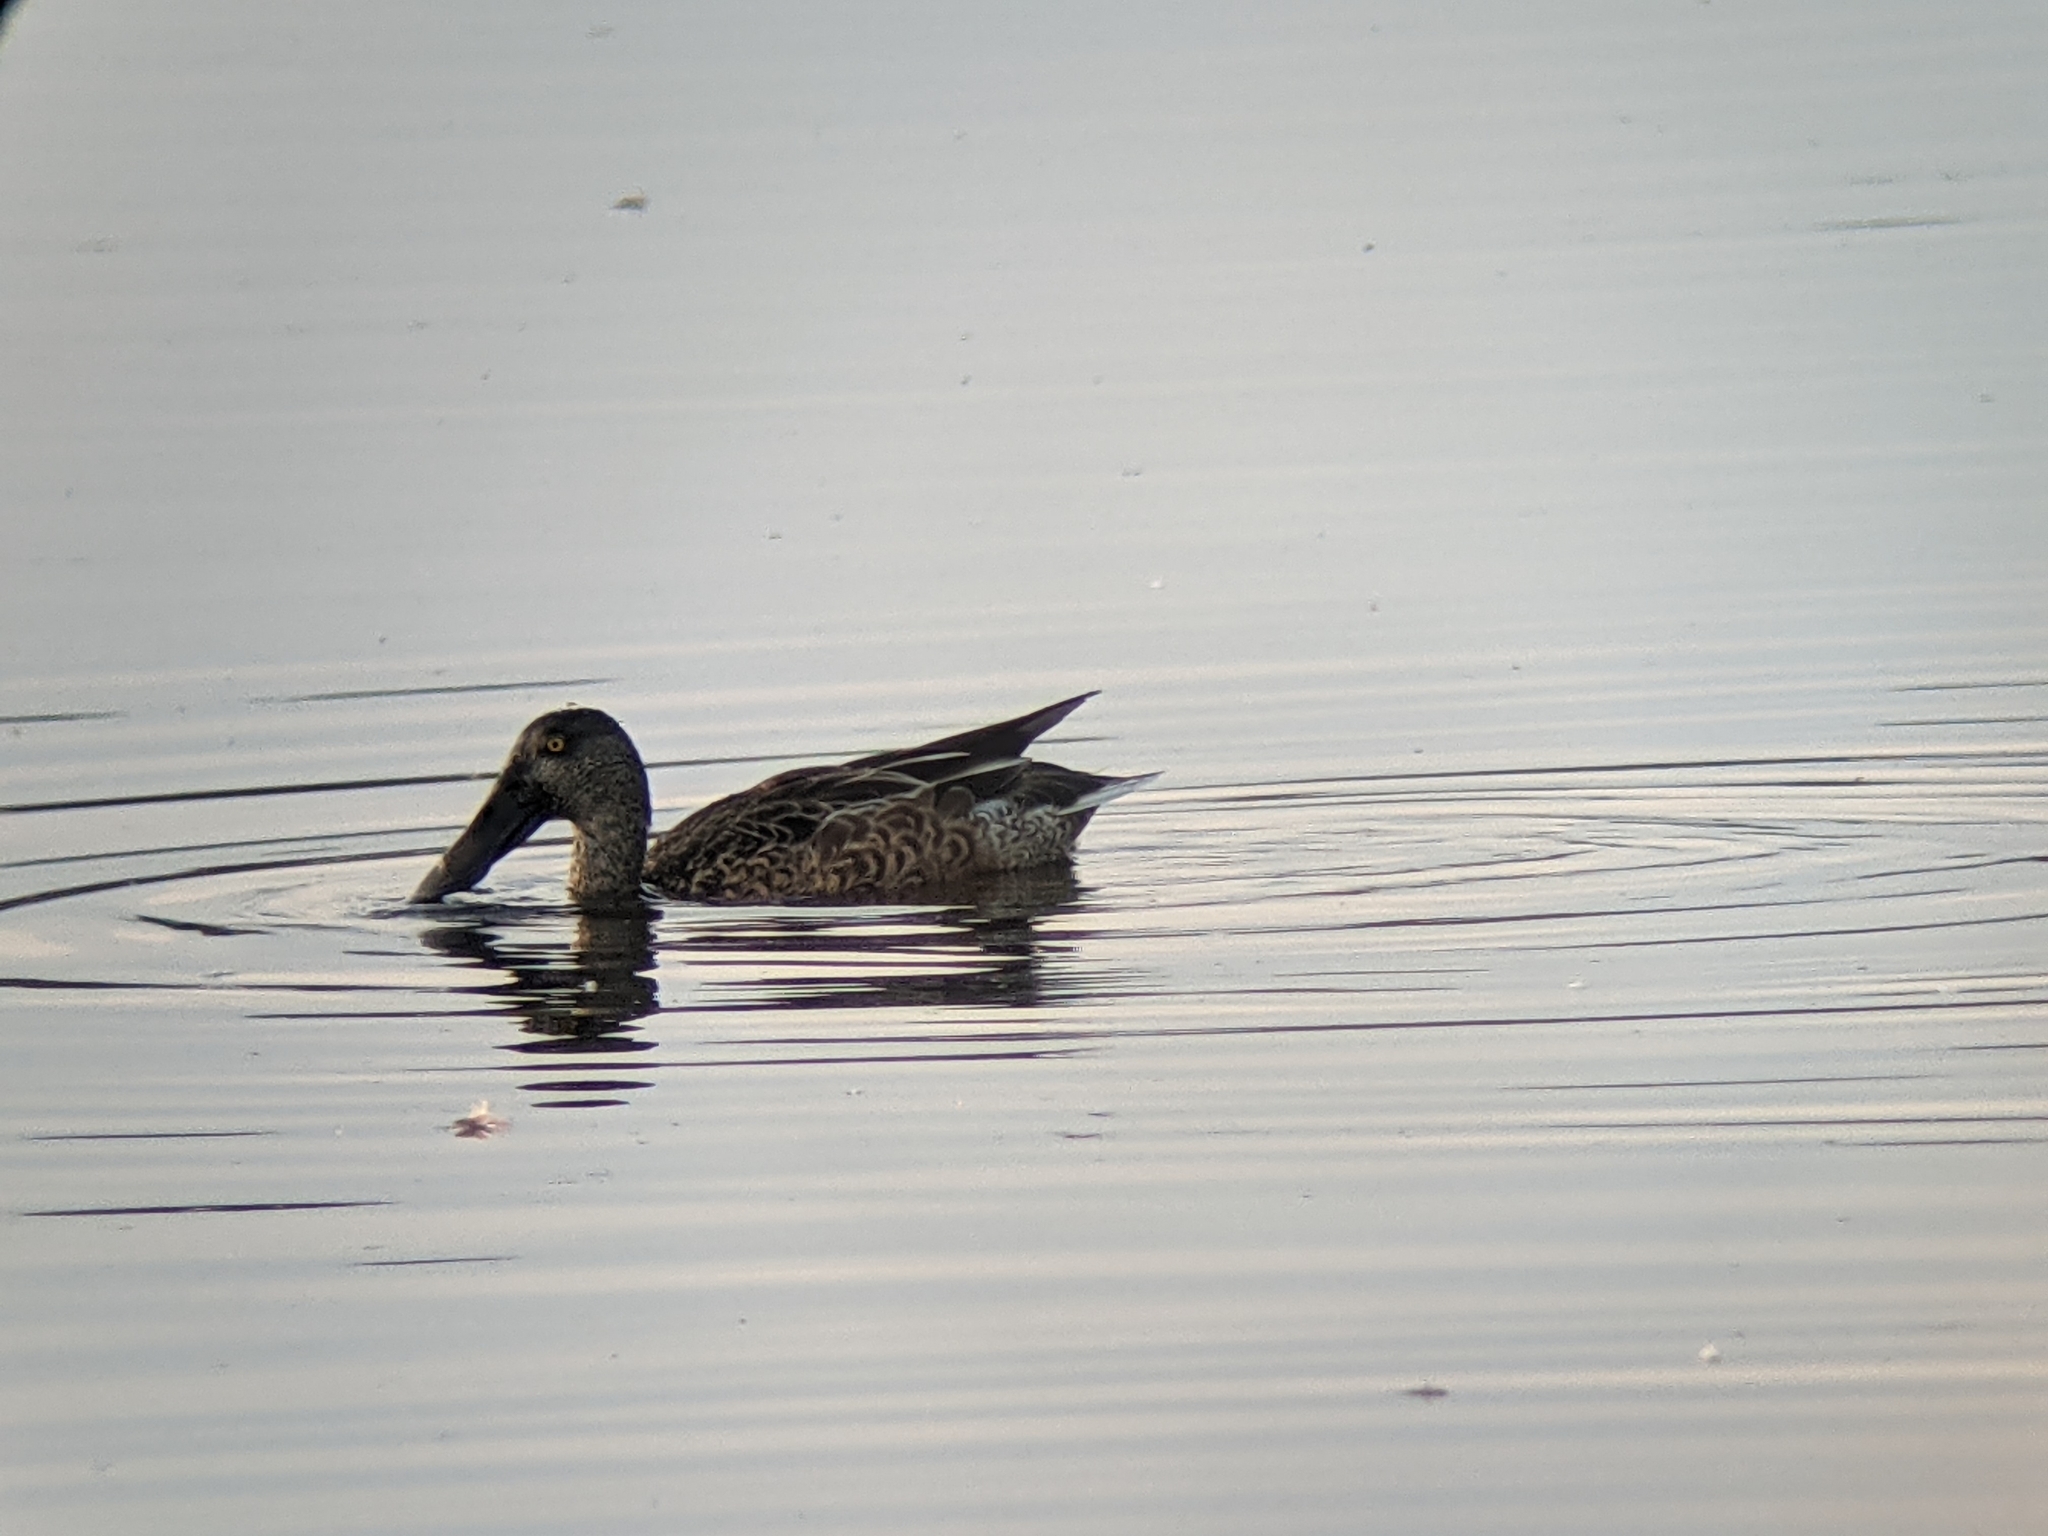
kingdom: Animalia
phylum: Chordata
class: Aves
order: Anseriformes
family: Anatidae
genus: Spatula
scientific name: Spatula clypeata
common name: Northern shoveler
